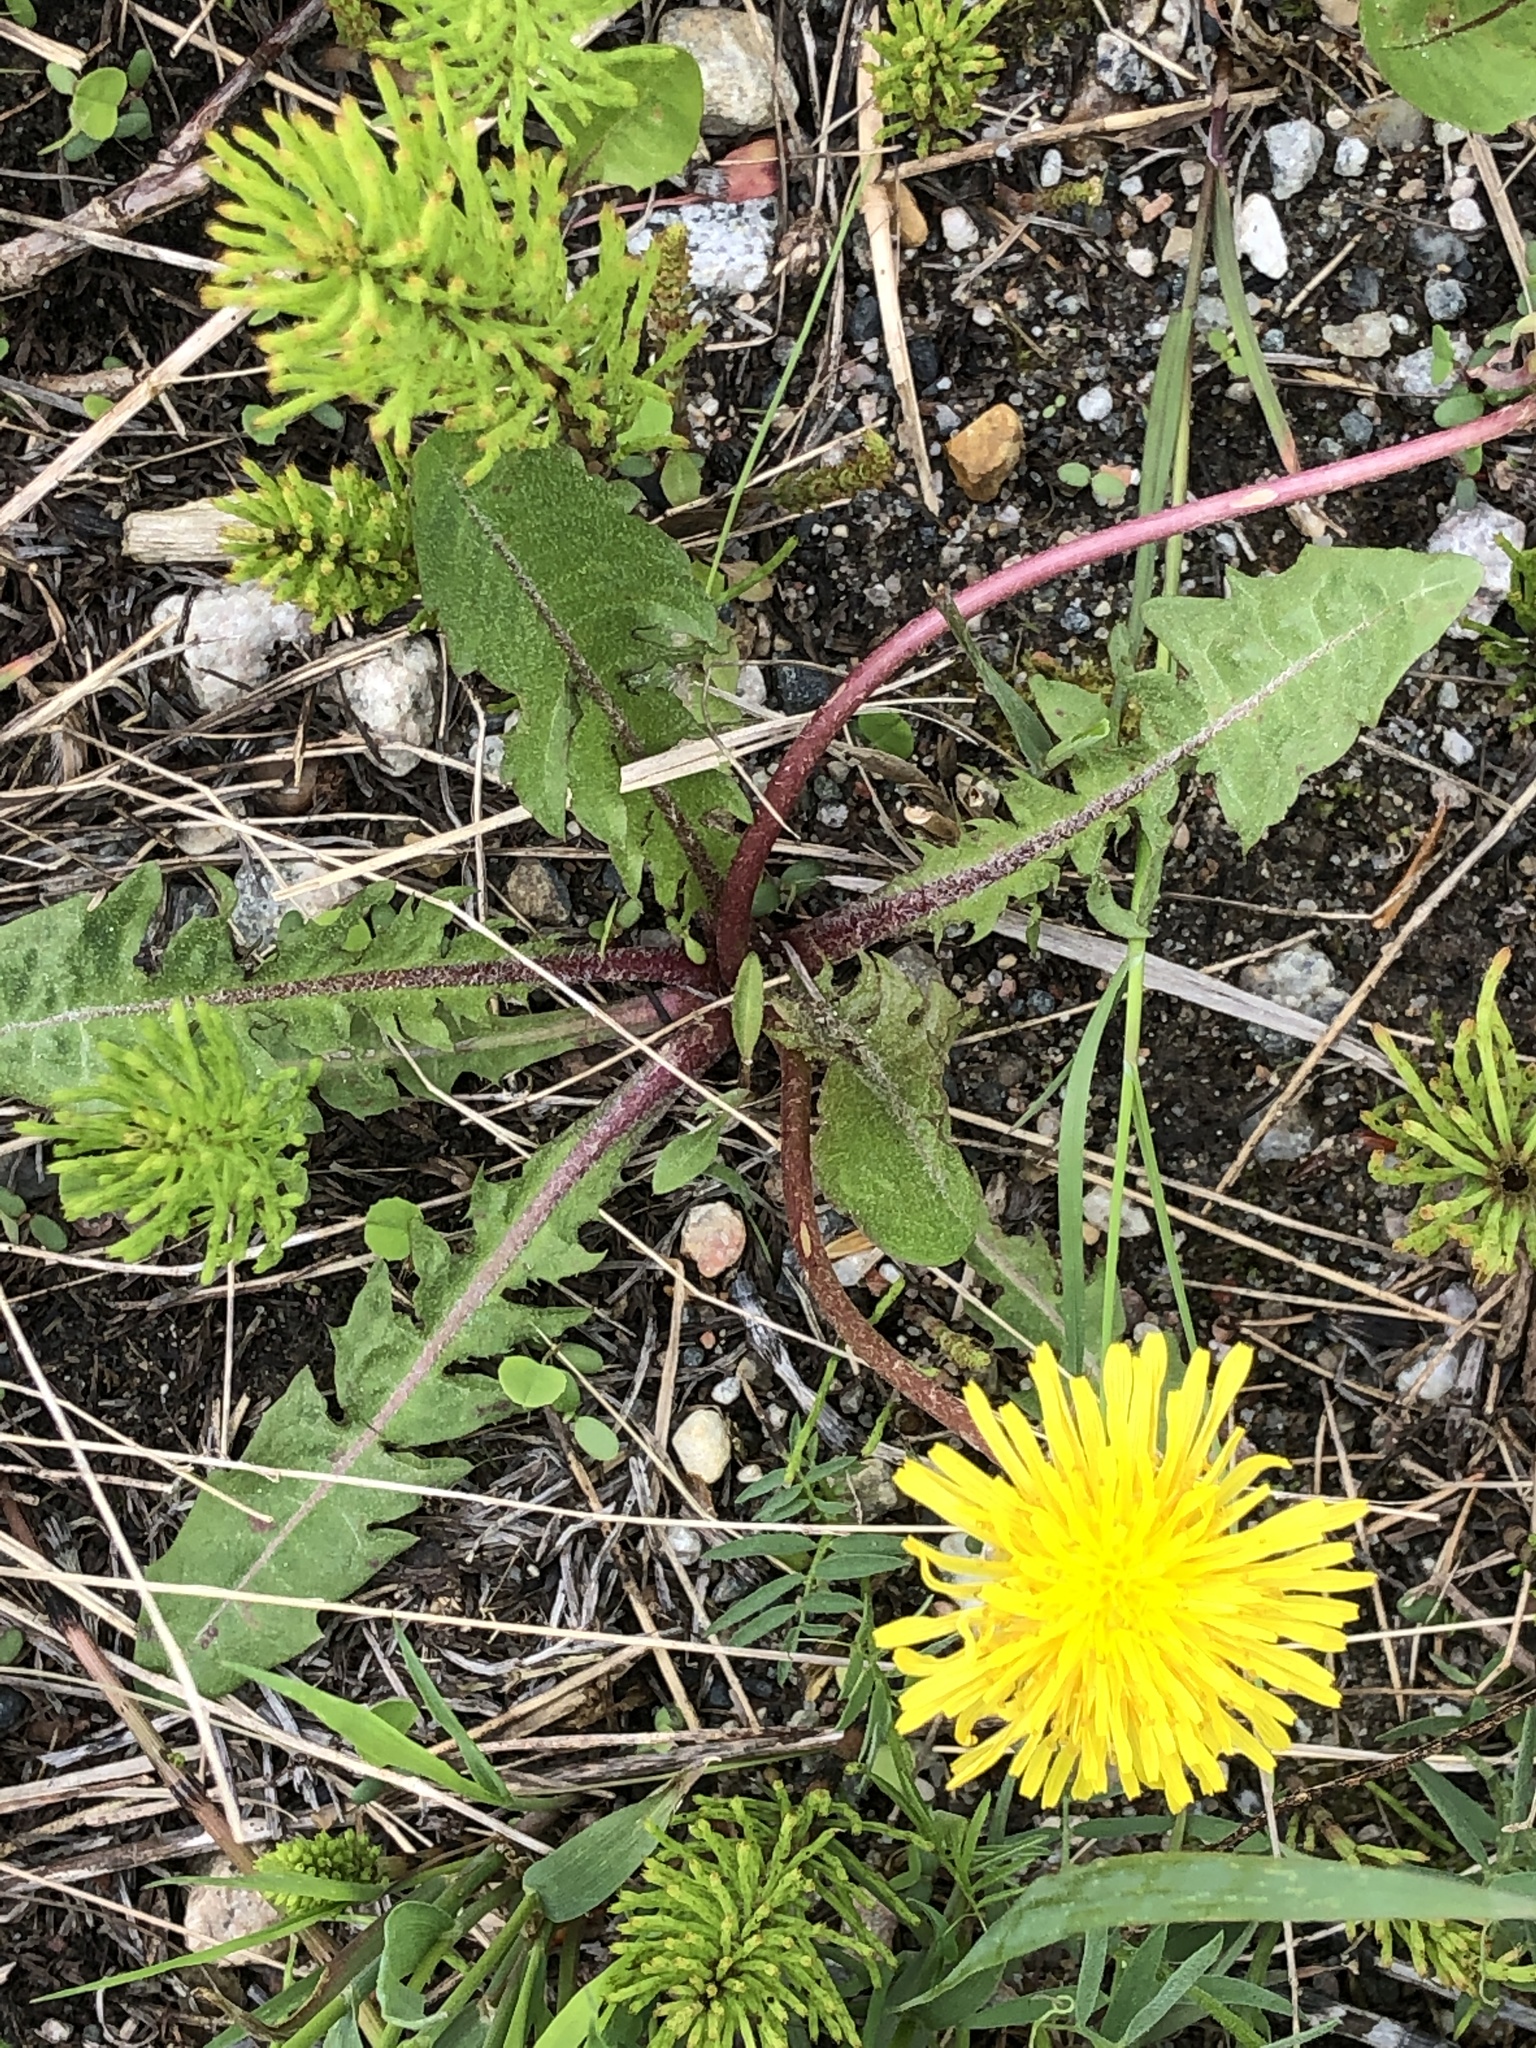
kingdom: Plantae
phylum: Tracheophyta
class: Magnoliopsida
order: Asterales
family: Asteraceae
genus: Taraxacum
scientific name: Taraxacum officinale
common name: Common dandelion
